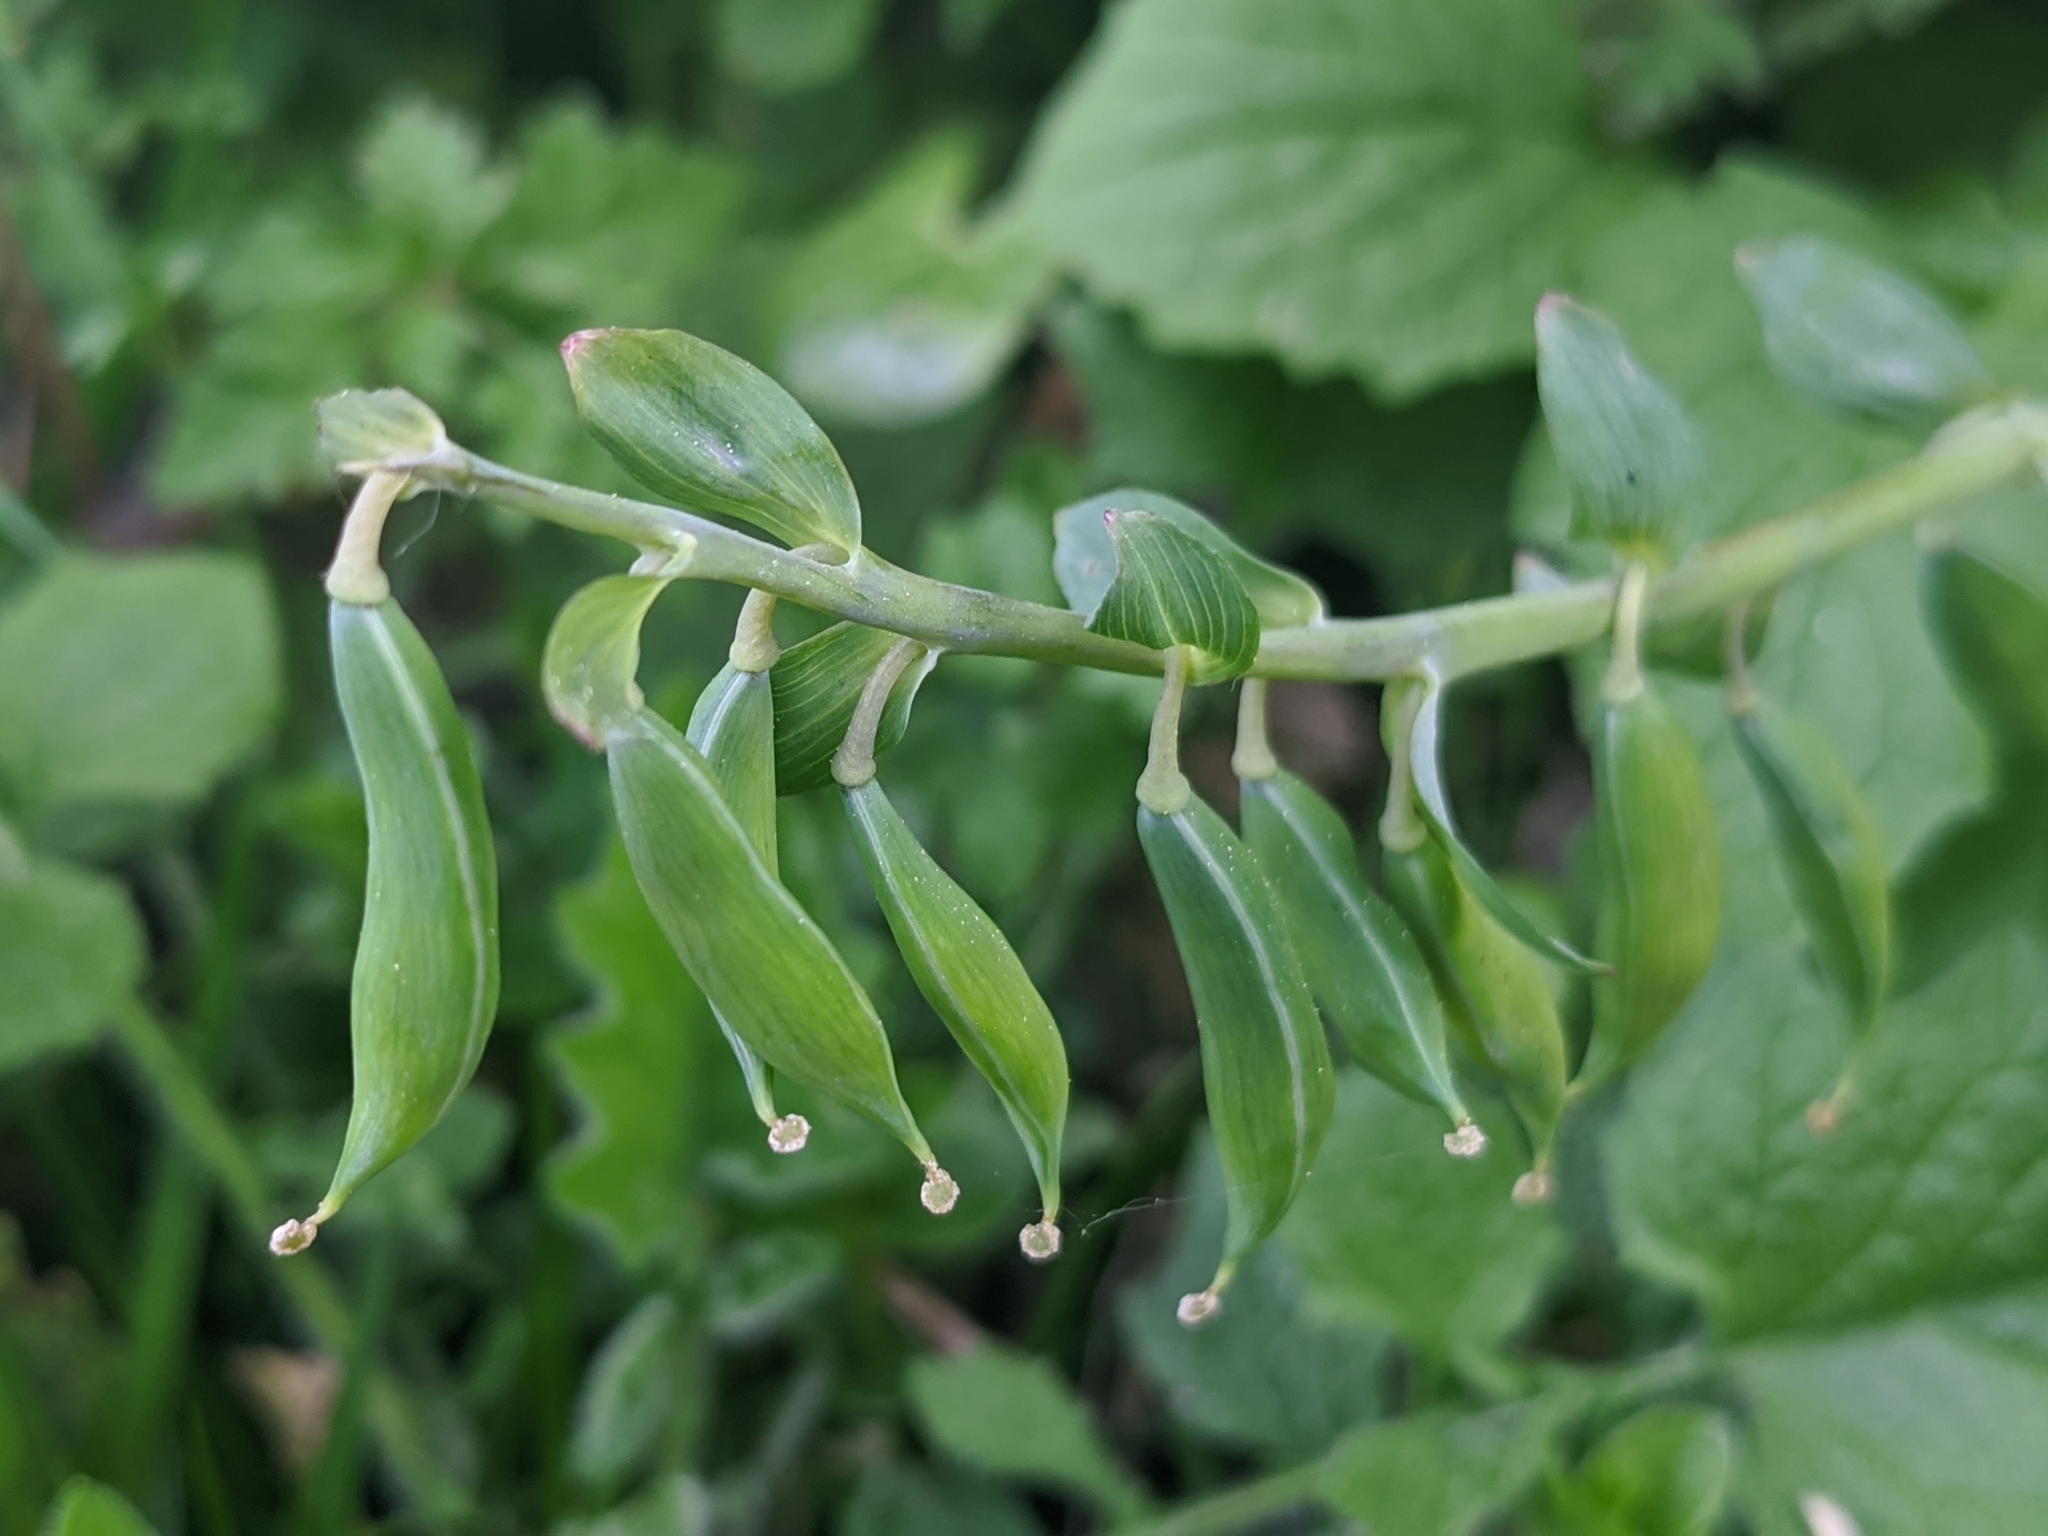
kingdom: Plantae
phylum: Tracheophyta
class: Magnoliopsida
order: Ranunculales
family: Papaveraceae
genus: Corydalis
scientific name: Corydalis cava
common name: Hollowroot
